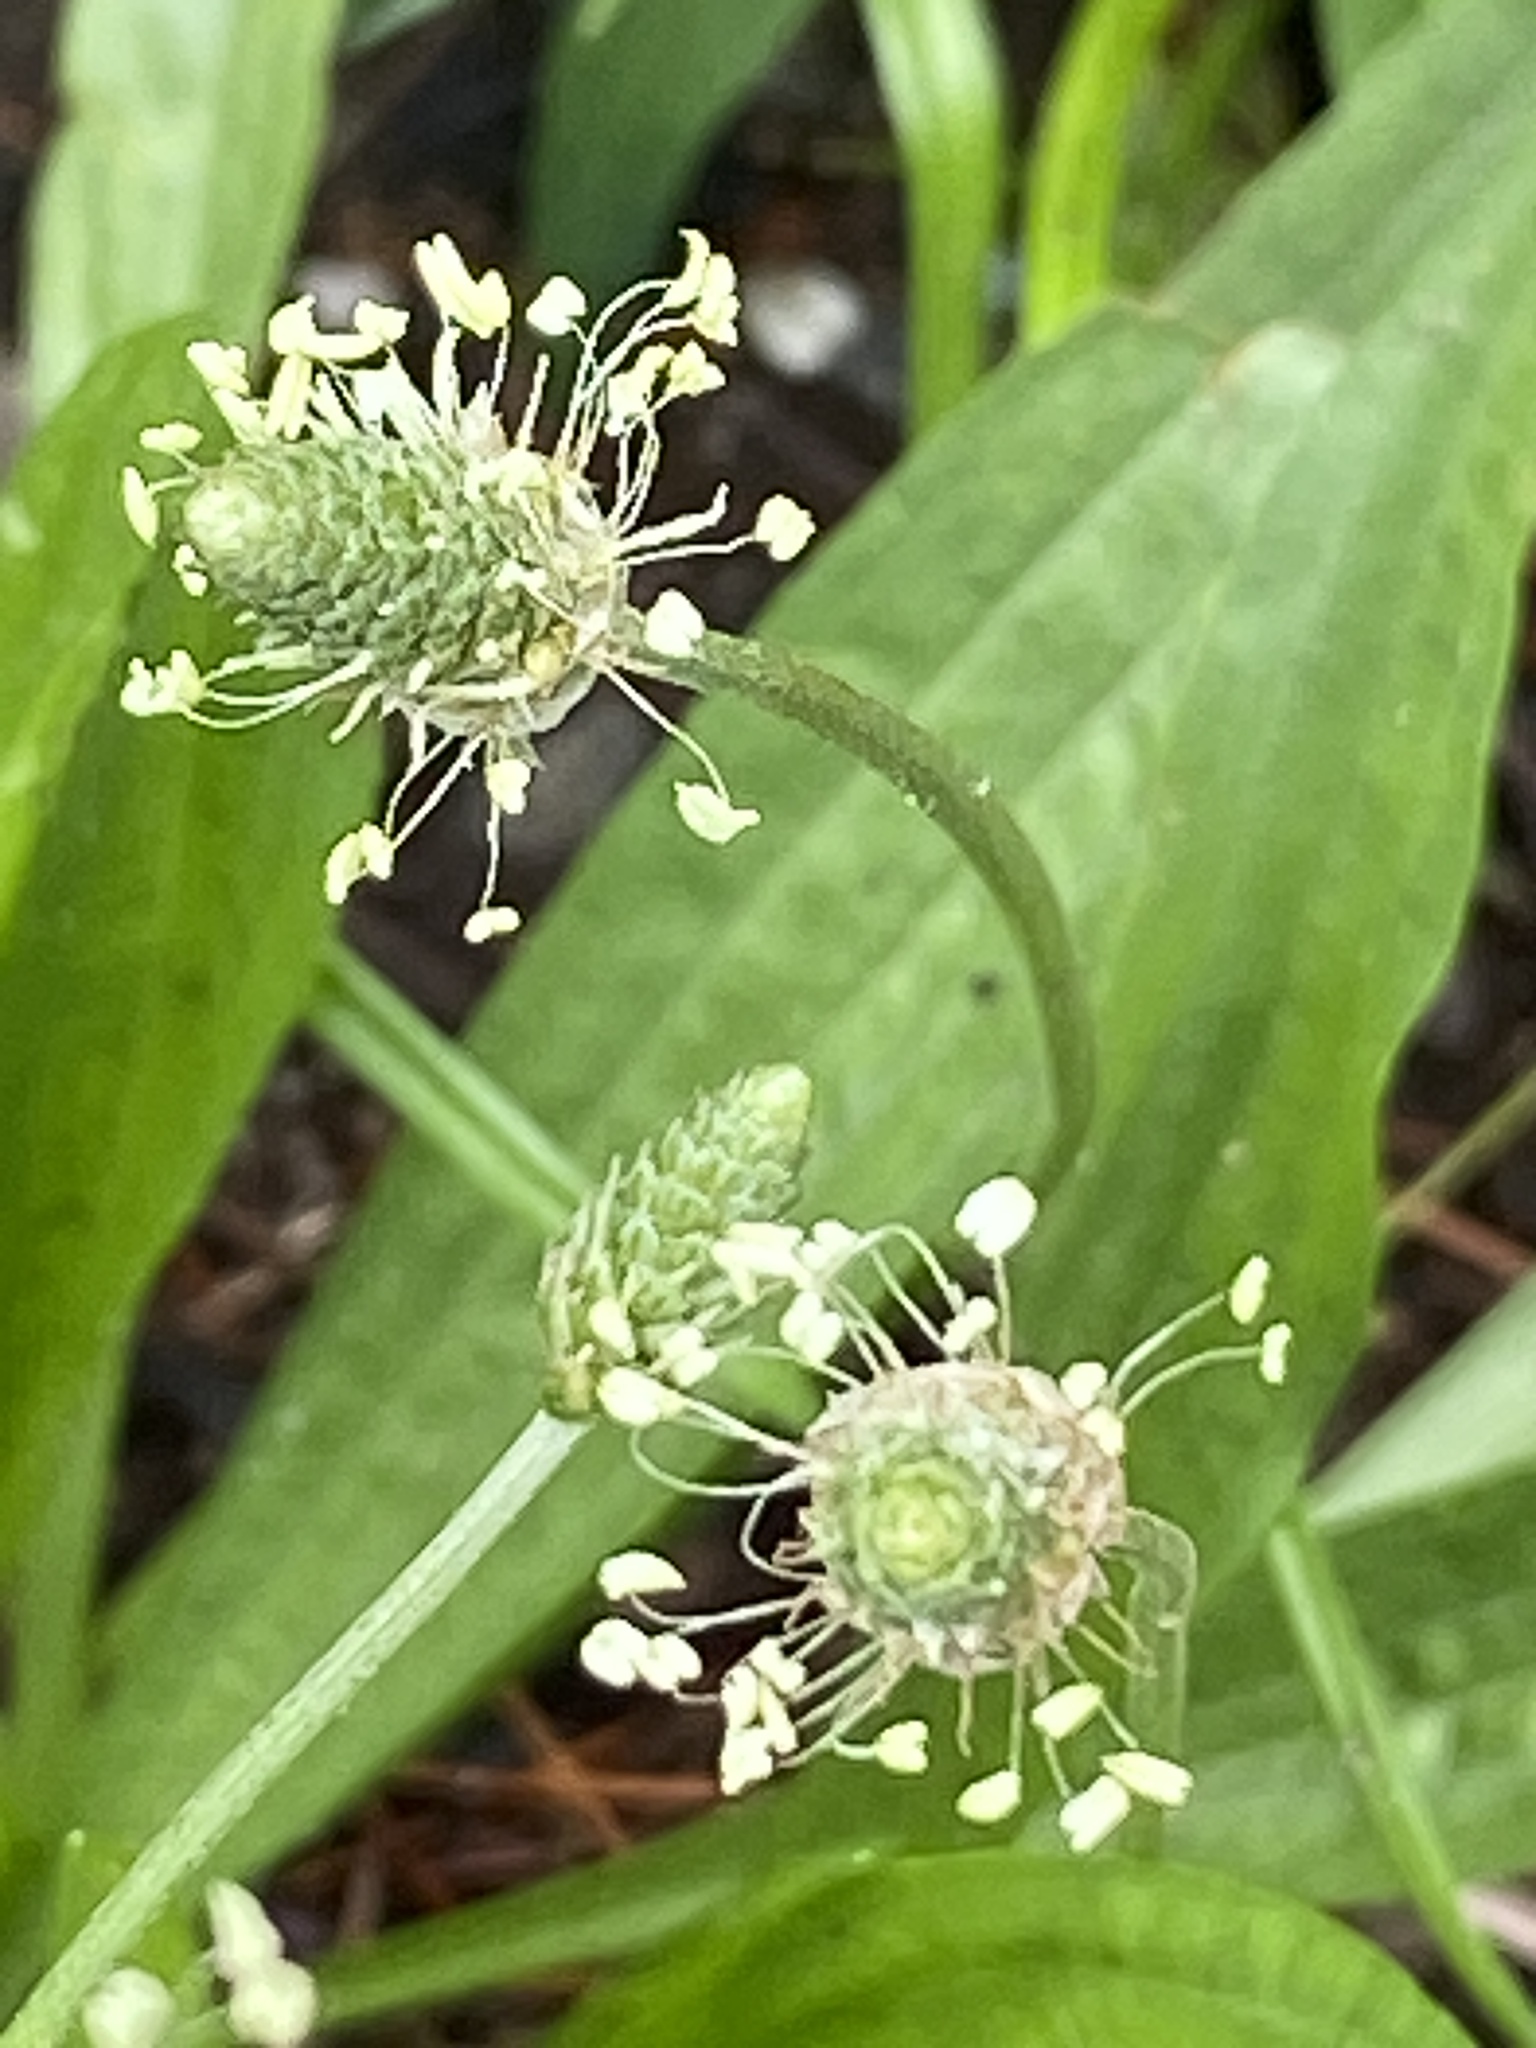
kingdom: Plantae
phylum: Tracheophyta
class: Magnoliopsida
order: Lamiales
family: Plantaginaceae
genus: Plantago
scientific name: Plantago lanceolata
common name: Ribwort plantain
